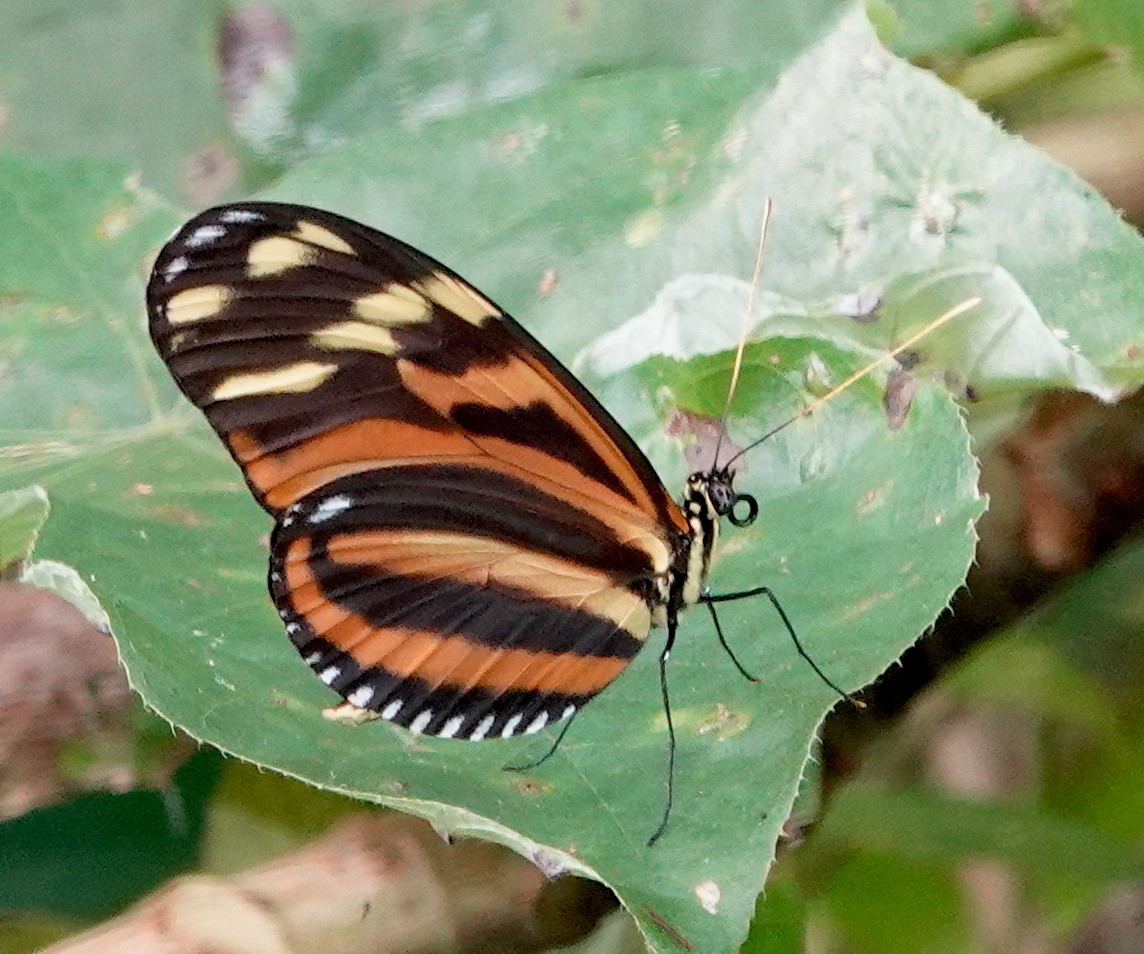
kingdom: Animalia
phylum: Arthropoda
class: Insecta
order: Lepidoptera
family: Nymphalidae
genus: Heliconius
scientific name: Heliconius ismenius
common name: Ismenius tiger
